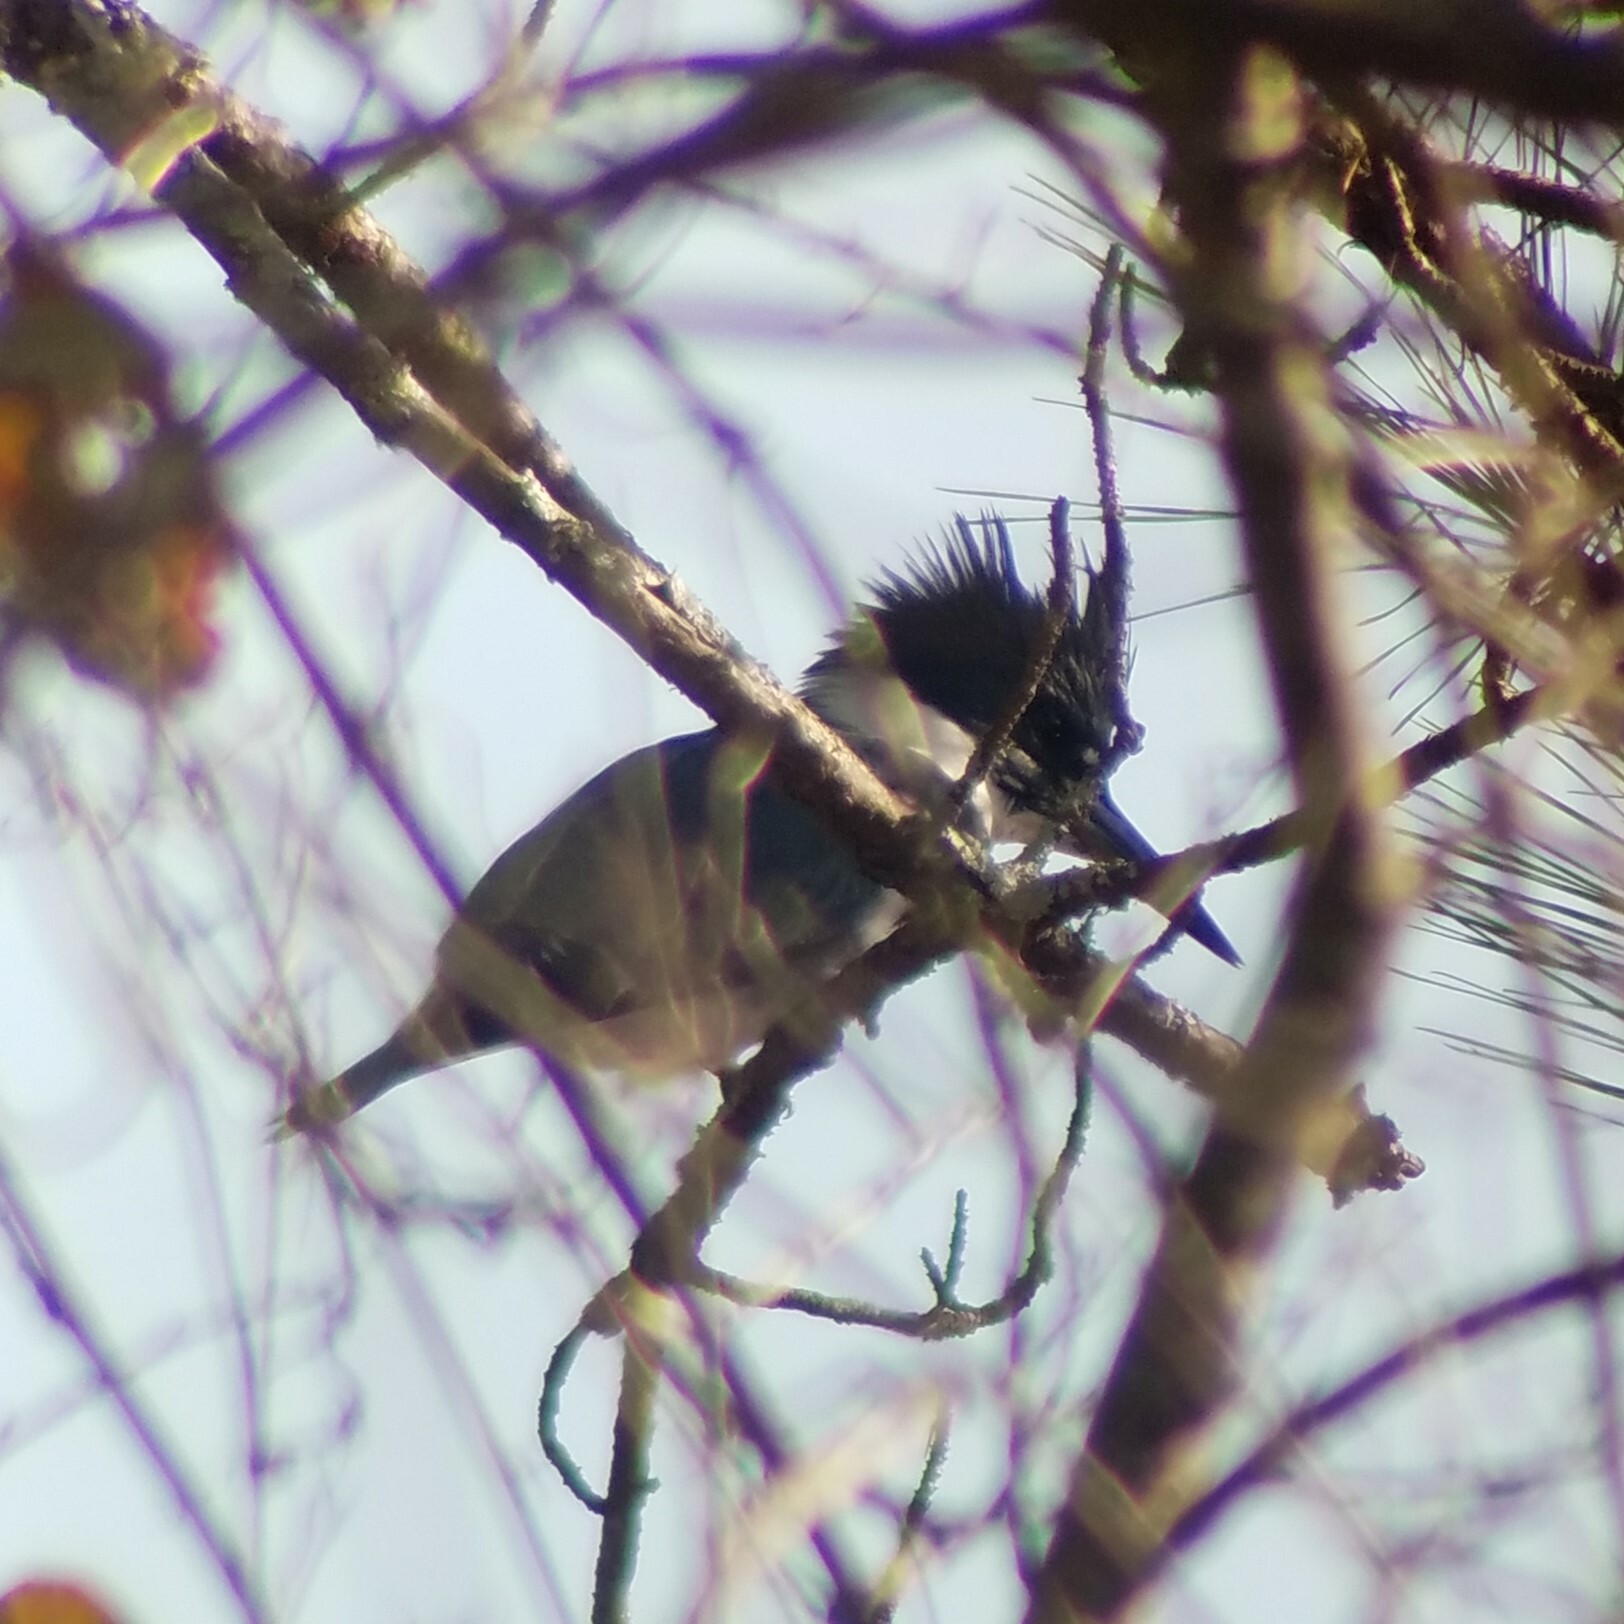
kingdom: Animalia
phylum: Chordata
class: Aves
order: Coraciiformes
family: Alcedinidae
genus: Megaceryle
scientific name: Megaceryle alcyon
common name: Belted kingfisher
